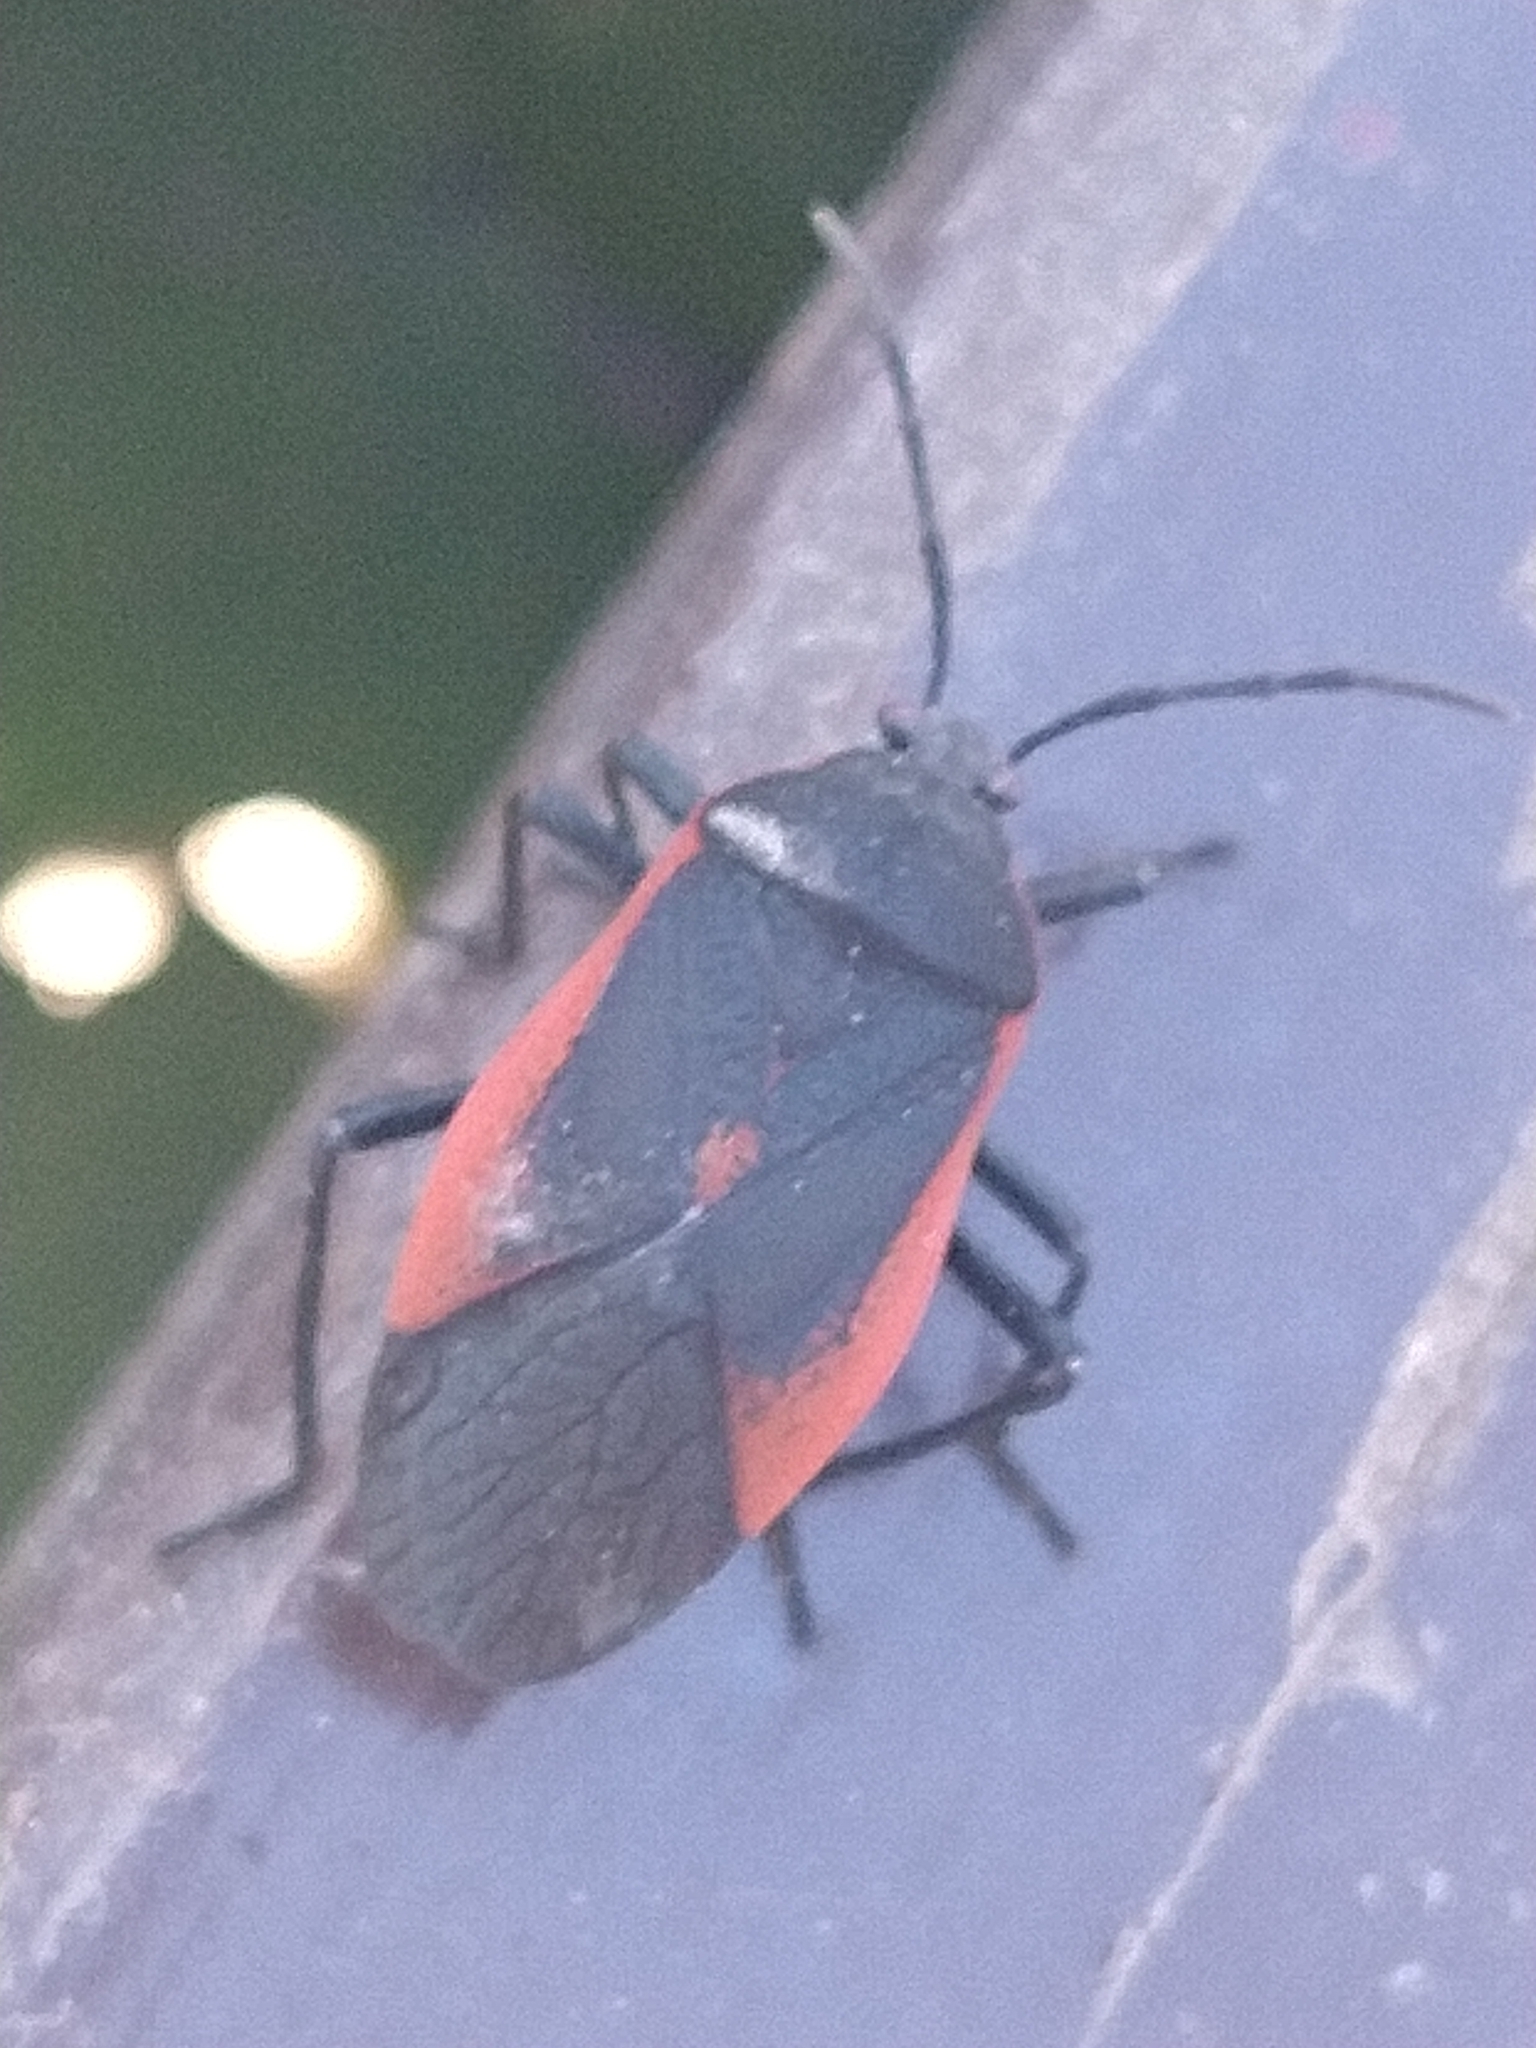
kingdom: Animalia
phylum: Arthropoda
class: Insecta
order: Hemiptera
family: Largidae
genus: Largus
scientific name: Largus rufipennis
